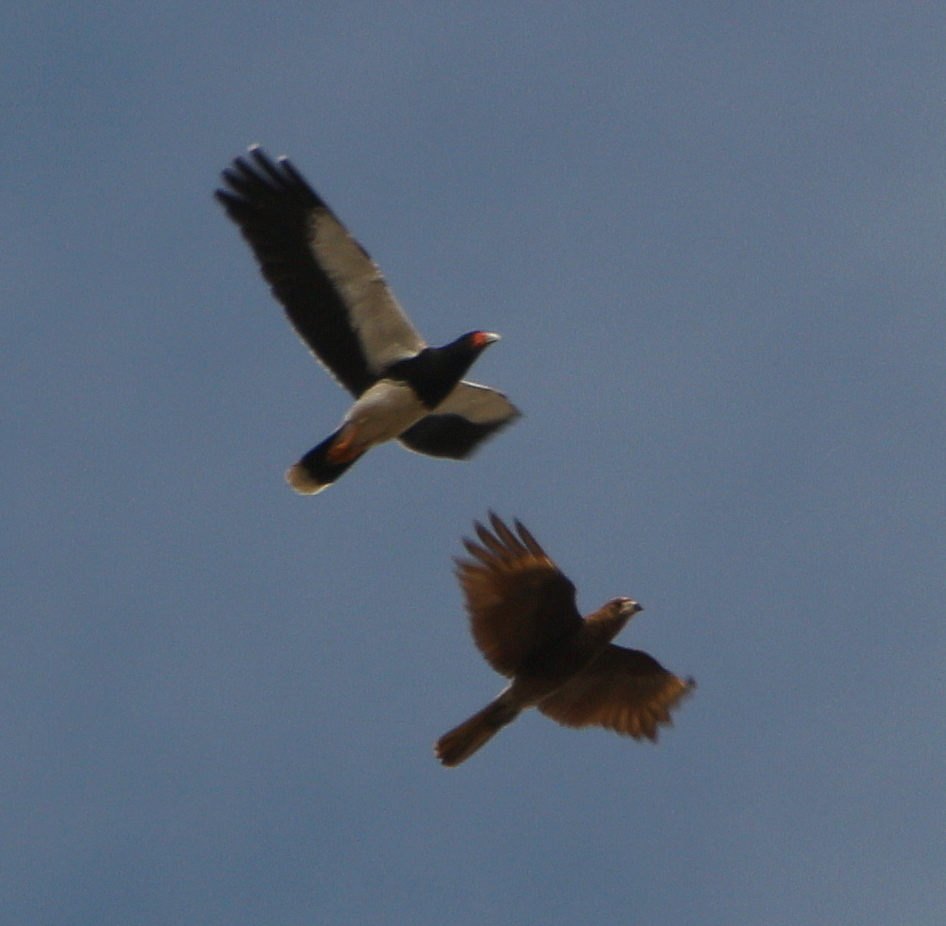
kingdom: Animalia
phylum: Chordata
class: Aves
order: Falconiformes
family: Falconidae
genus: Daptrius
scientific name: Daptrius
